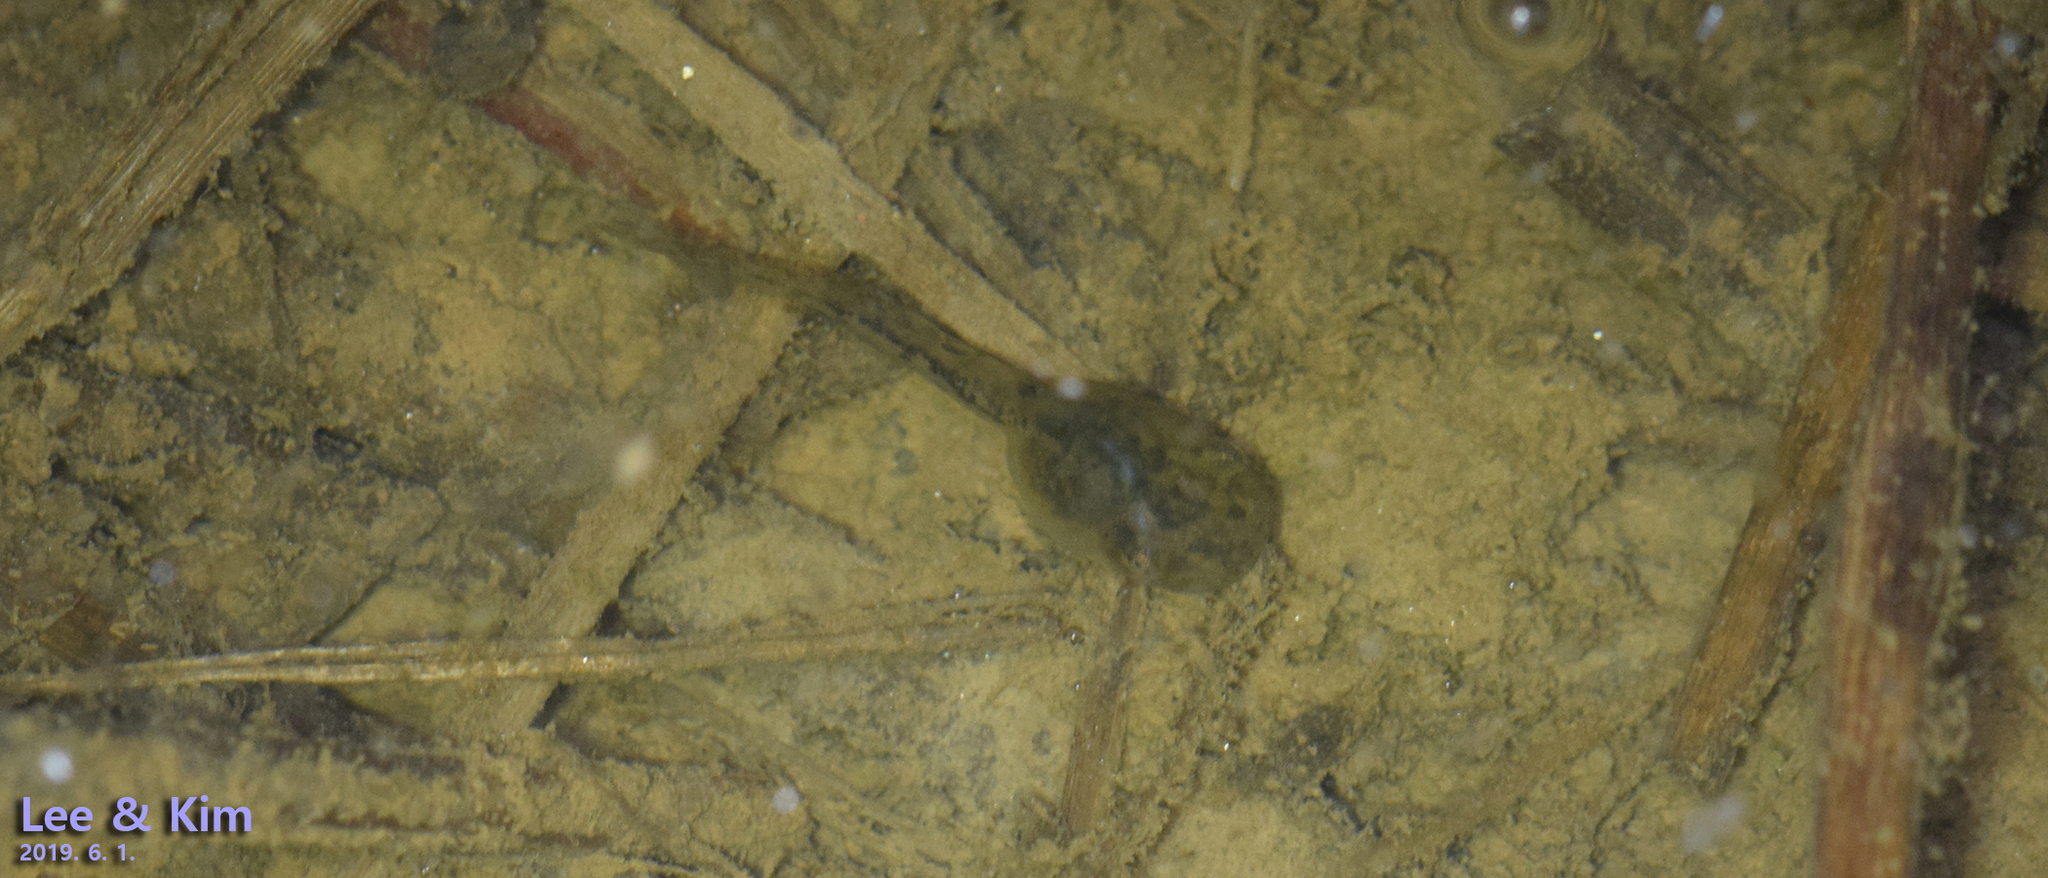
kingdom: Animalia
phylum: Chordata
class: Amphibia
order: Anura
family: Hylidae
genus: Dryophytes
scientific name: Dryophytes japonicus
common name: Japanese treefrog
